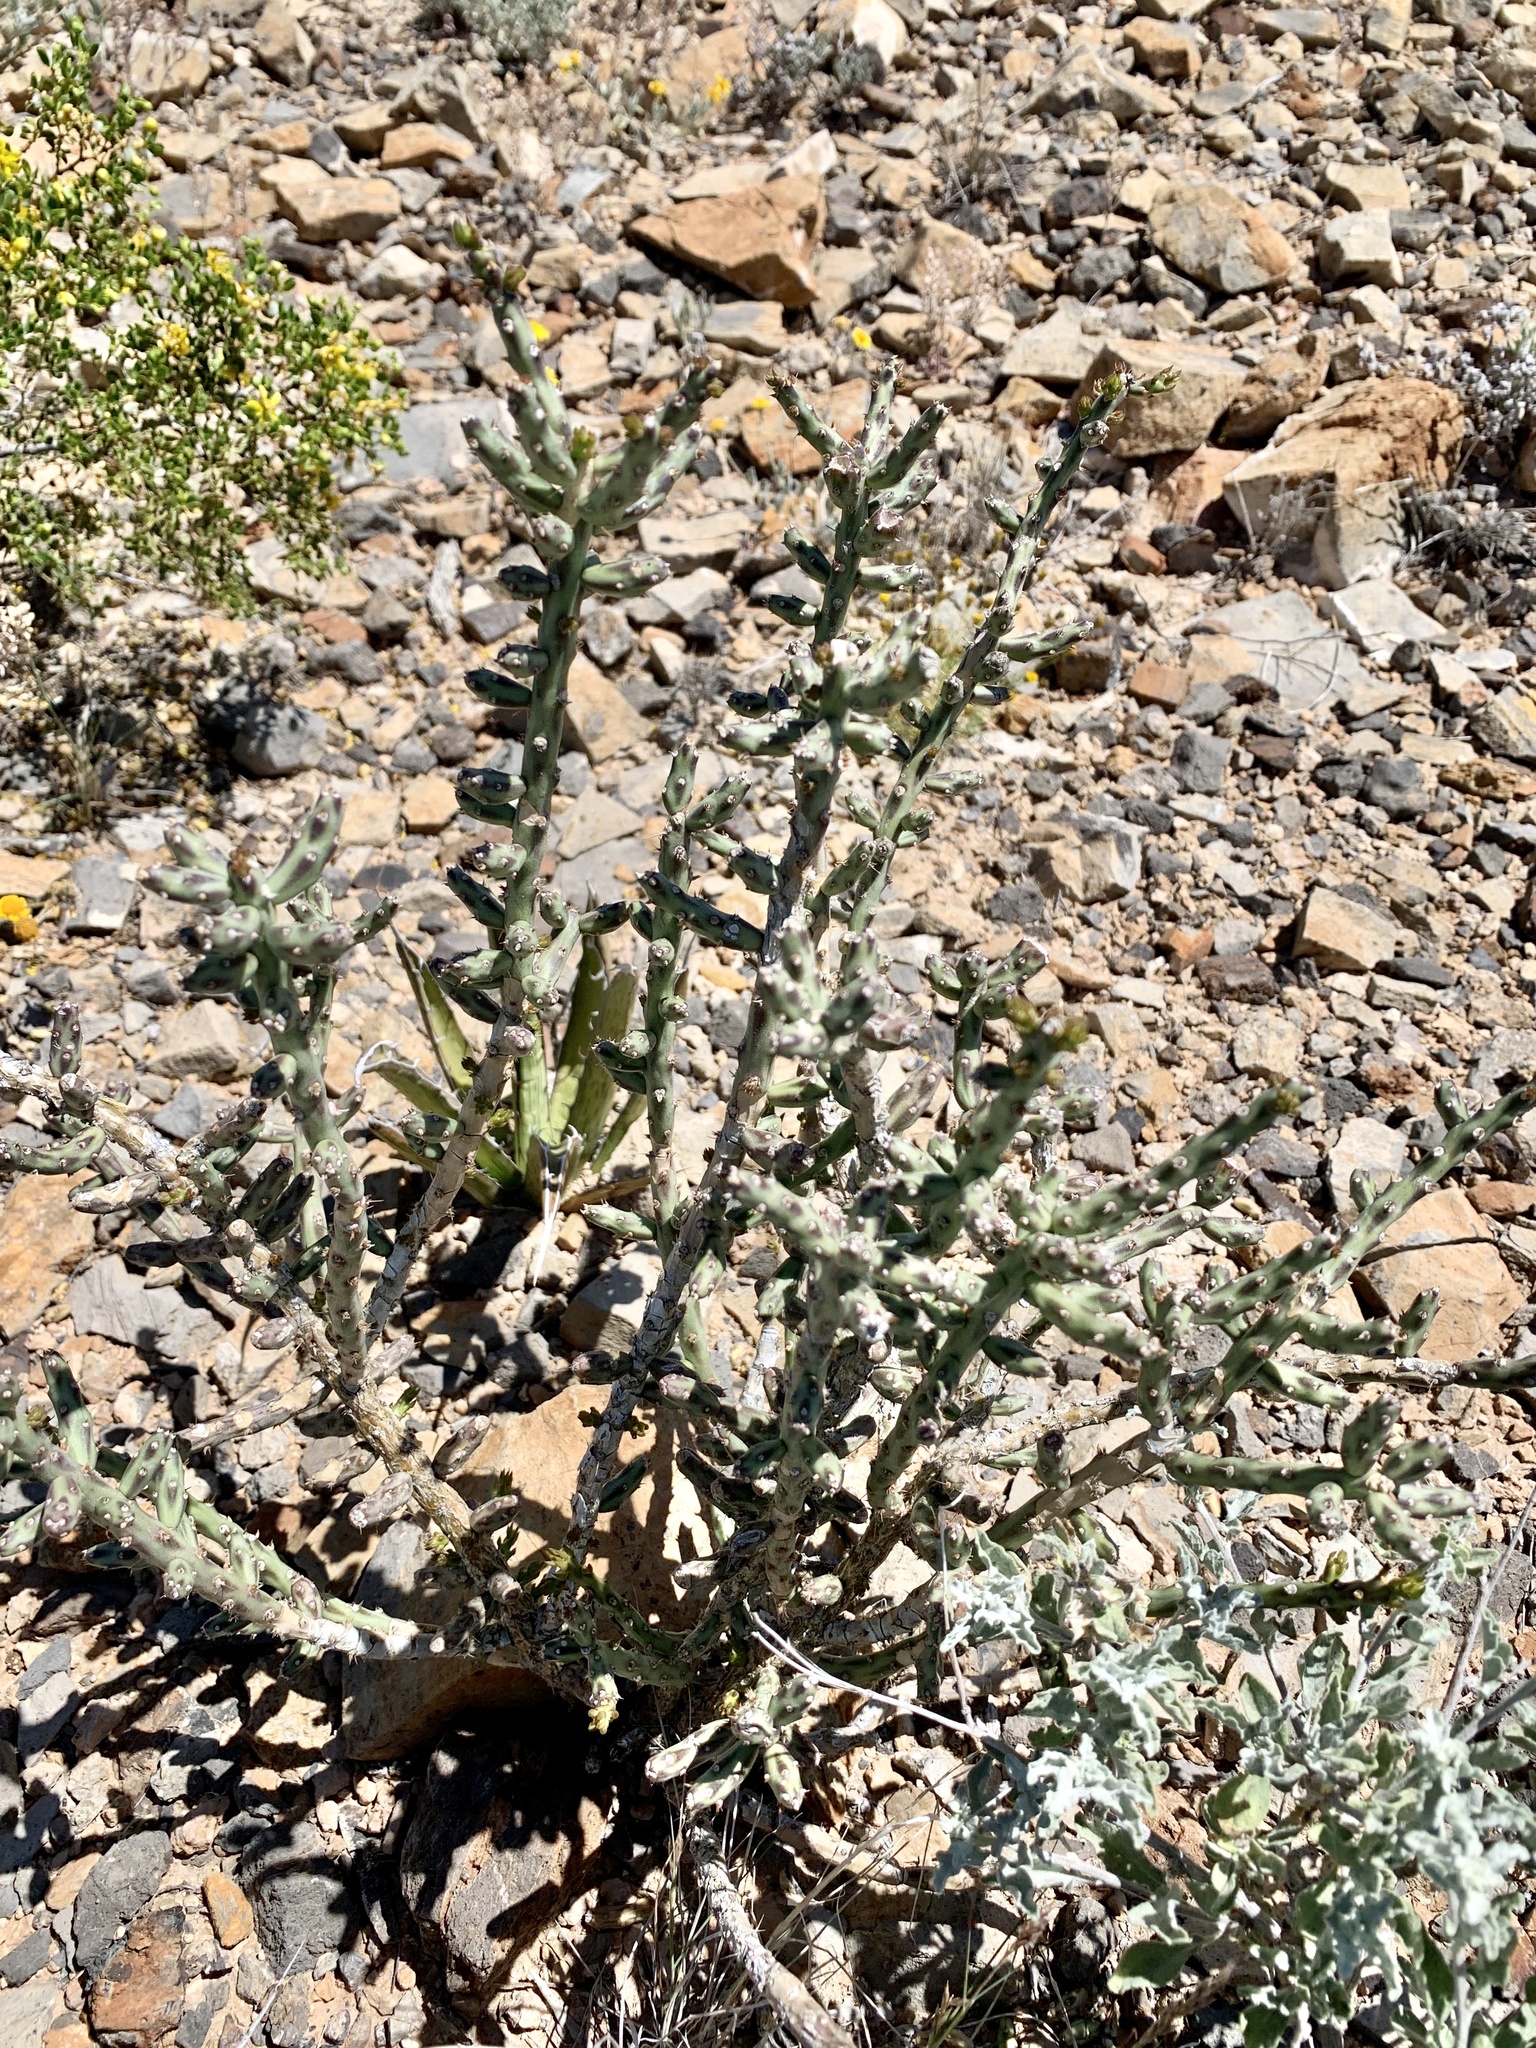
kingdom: Plantae
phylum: Tracheophyta
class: Magnoliopsida
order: Caryophyllales
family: Cactaceae
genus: Cylindropuntia
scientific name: Cylindropuntia leptocaulis
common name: Christmas cactus
